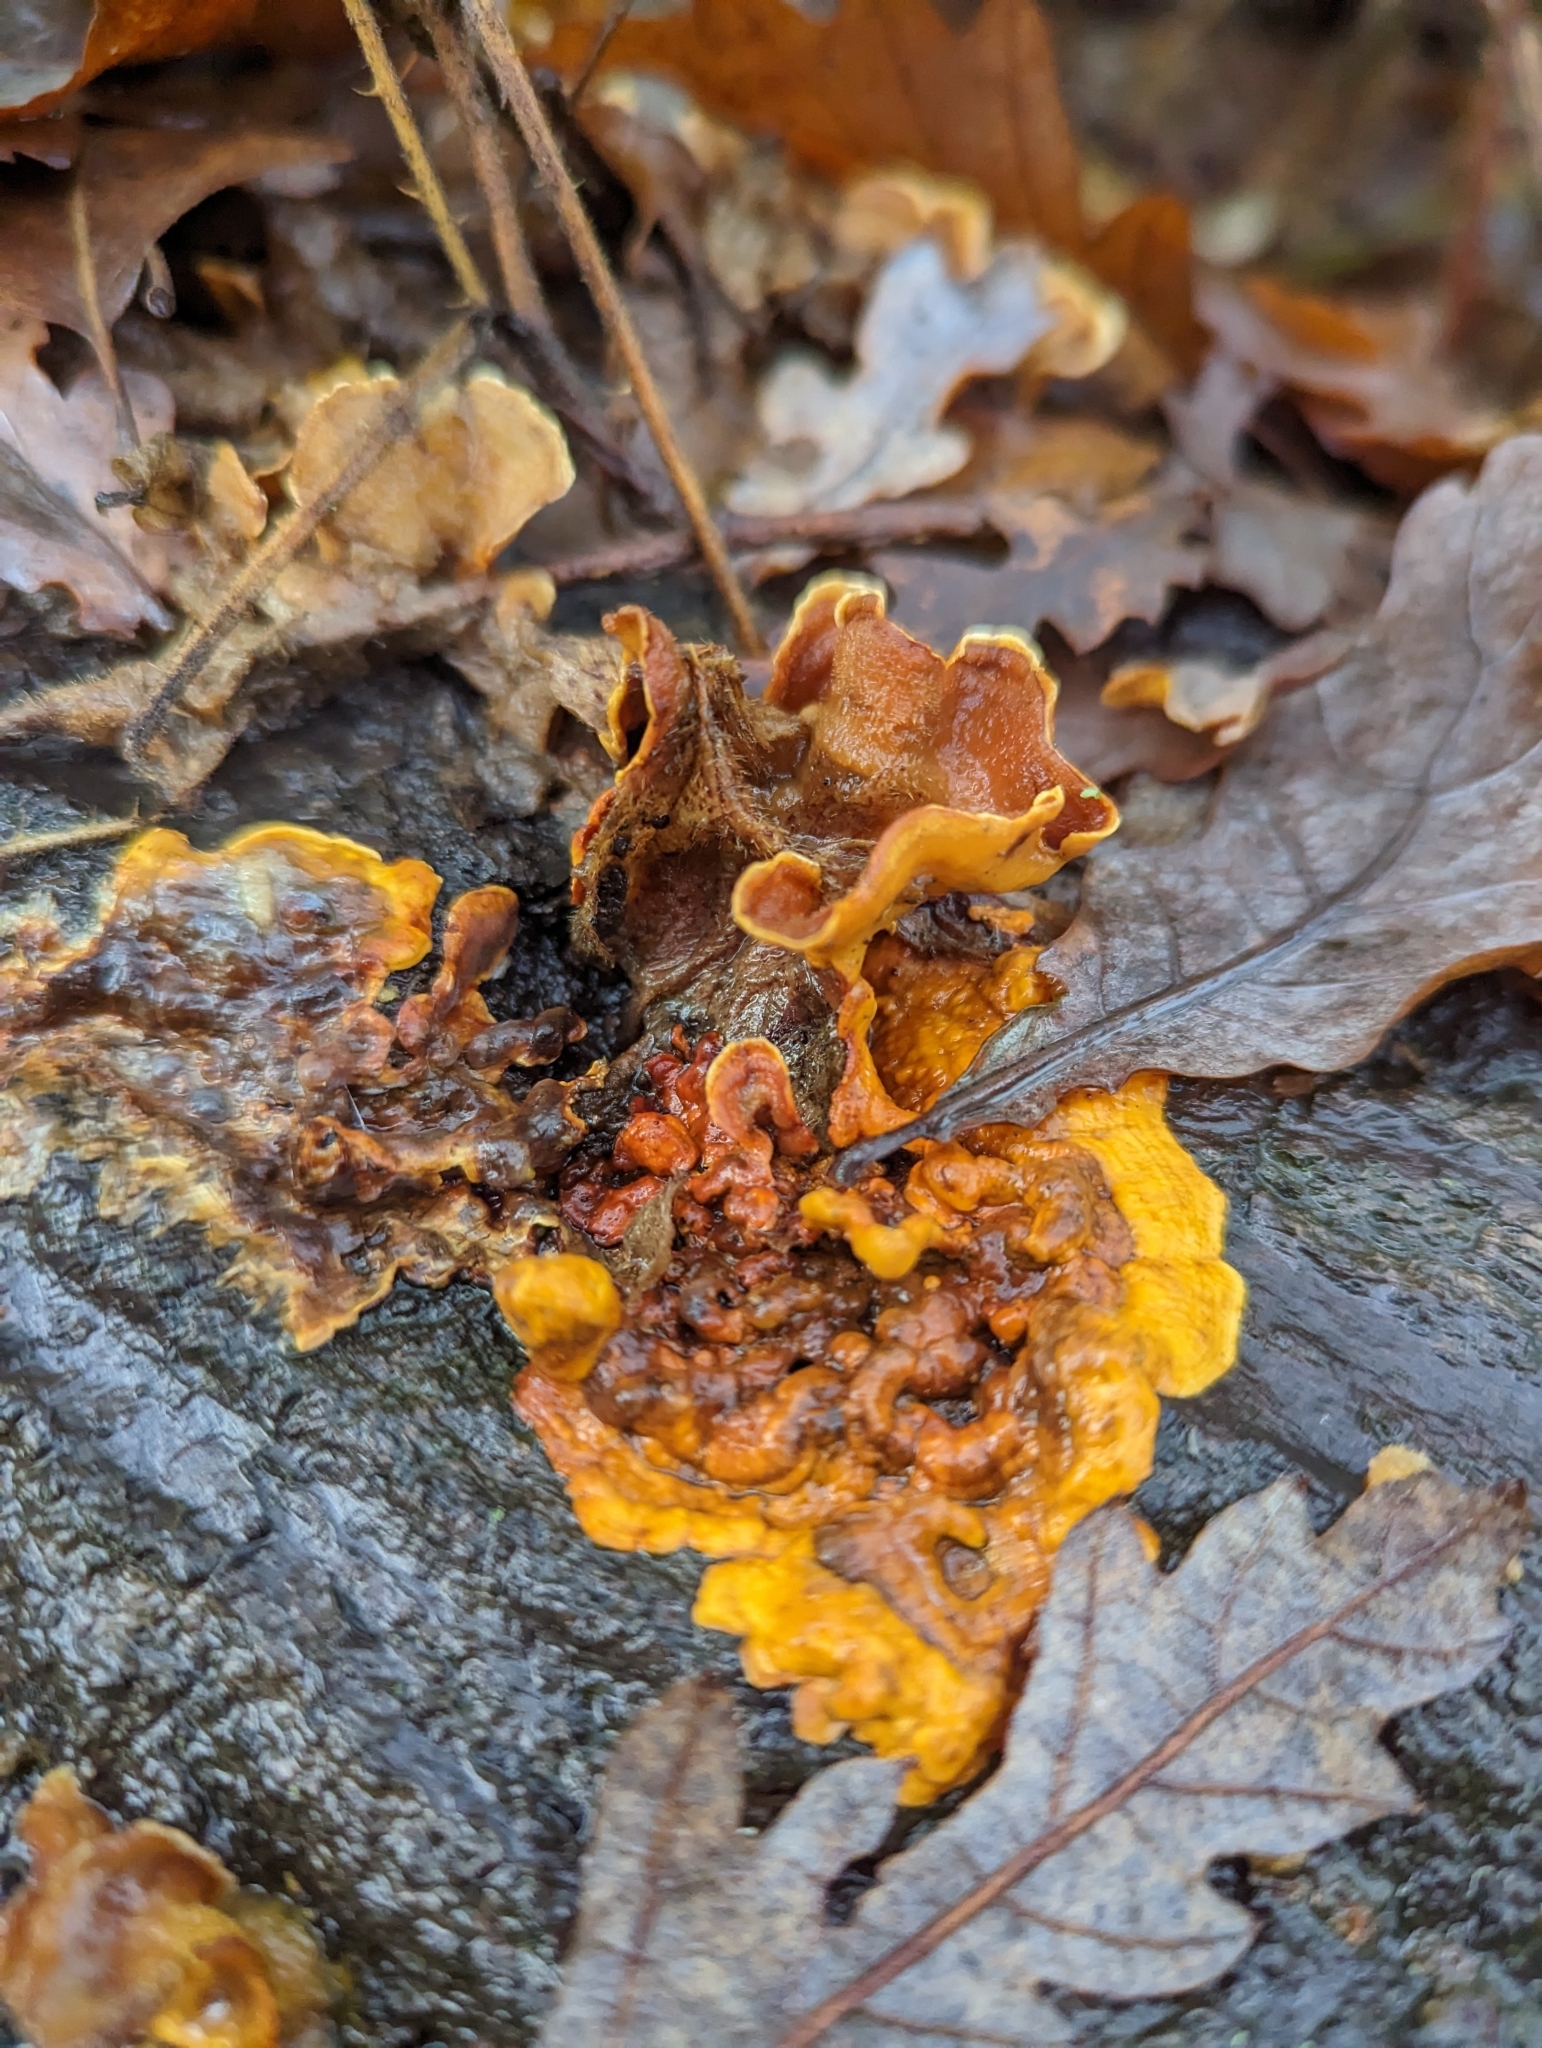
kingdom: Fungi
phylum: Basidiomycota
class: Agaricomycetes
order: Russulales
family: Stereaceae
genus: Stereum
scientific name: Stereum hirsutum
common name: Hairy curtain crust
